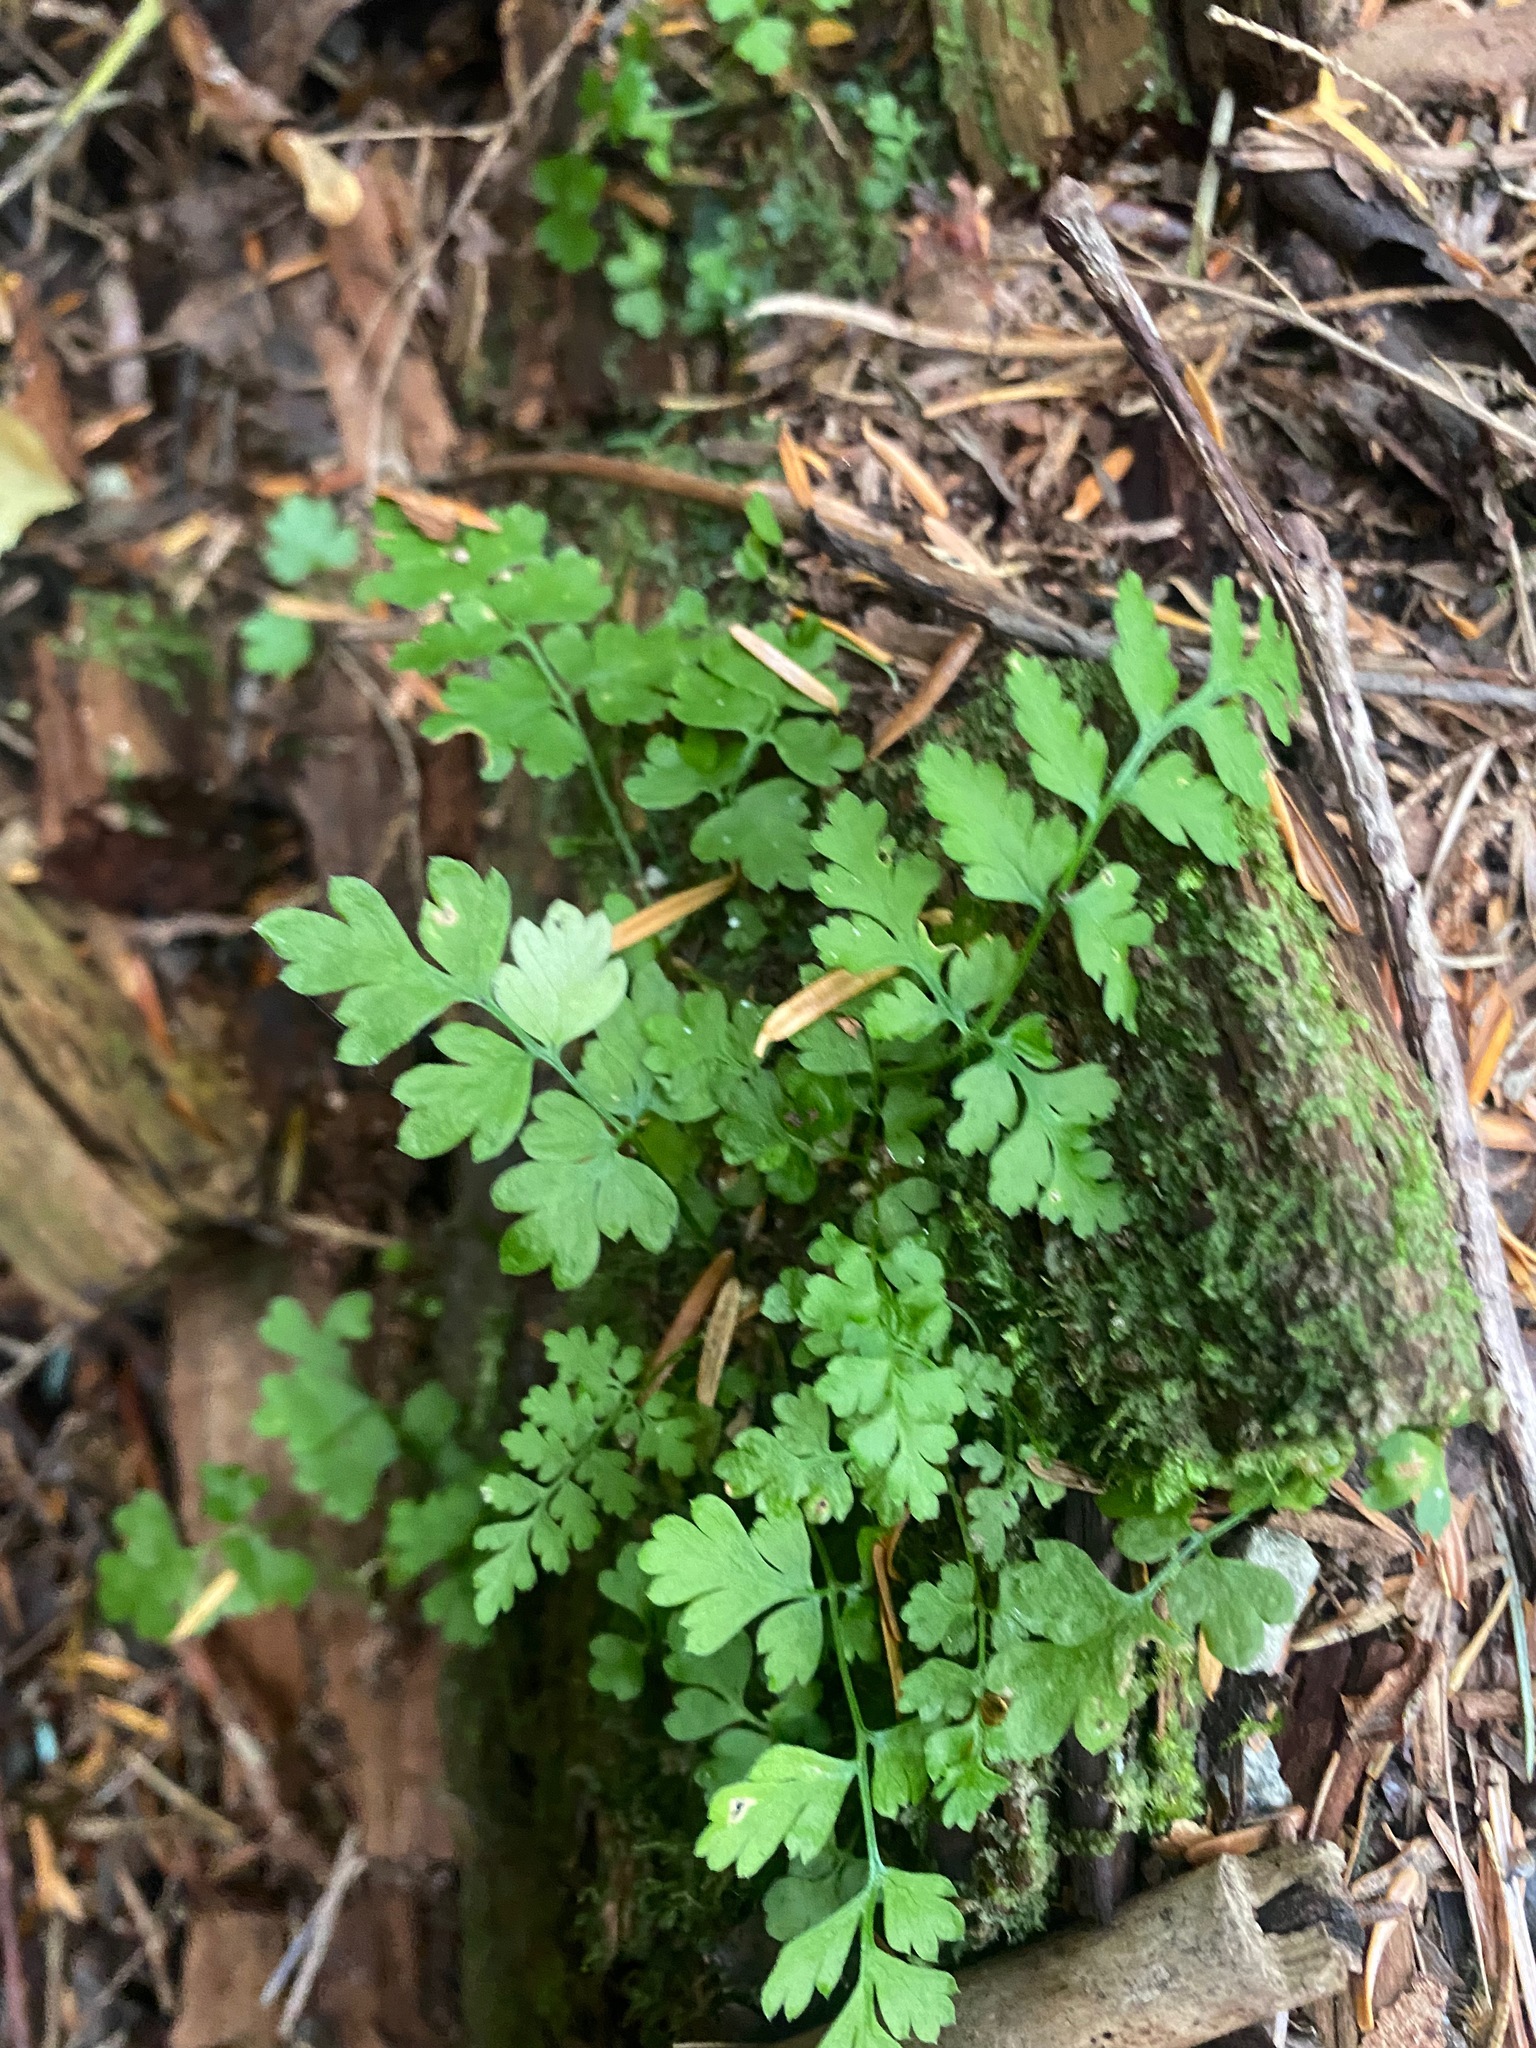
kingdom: Plantae
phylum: Tracheophyta
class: Polypodiopsida
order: Polypodiales
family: Dryopteridaceae
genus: Dryopteris
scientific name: Dryopteris expansa
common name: Northern buckler fern
